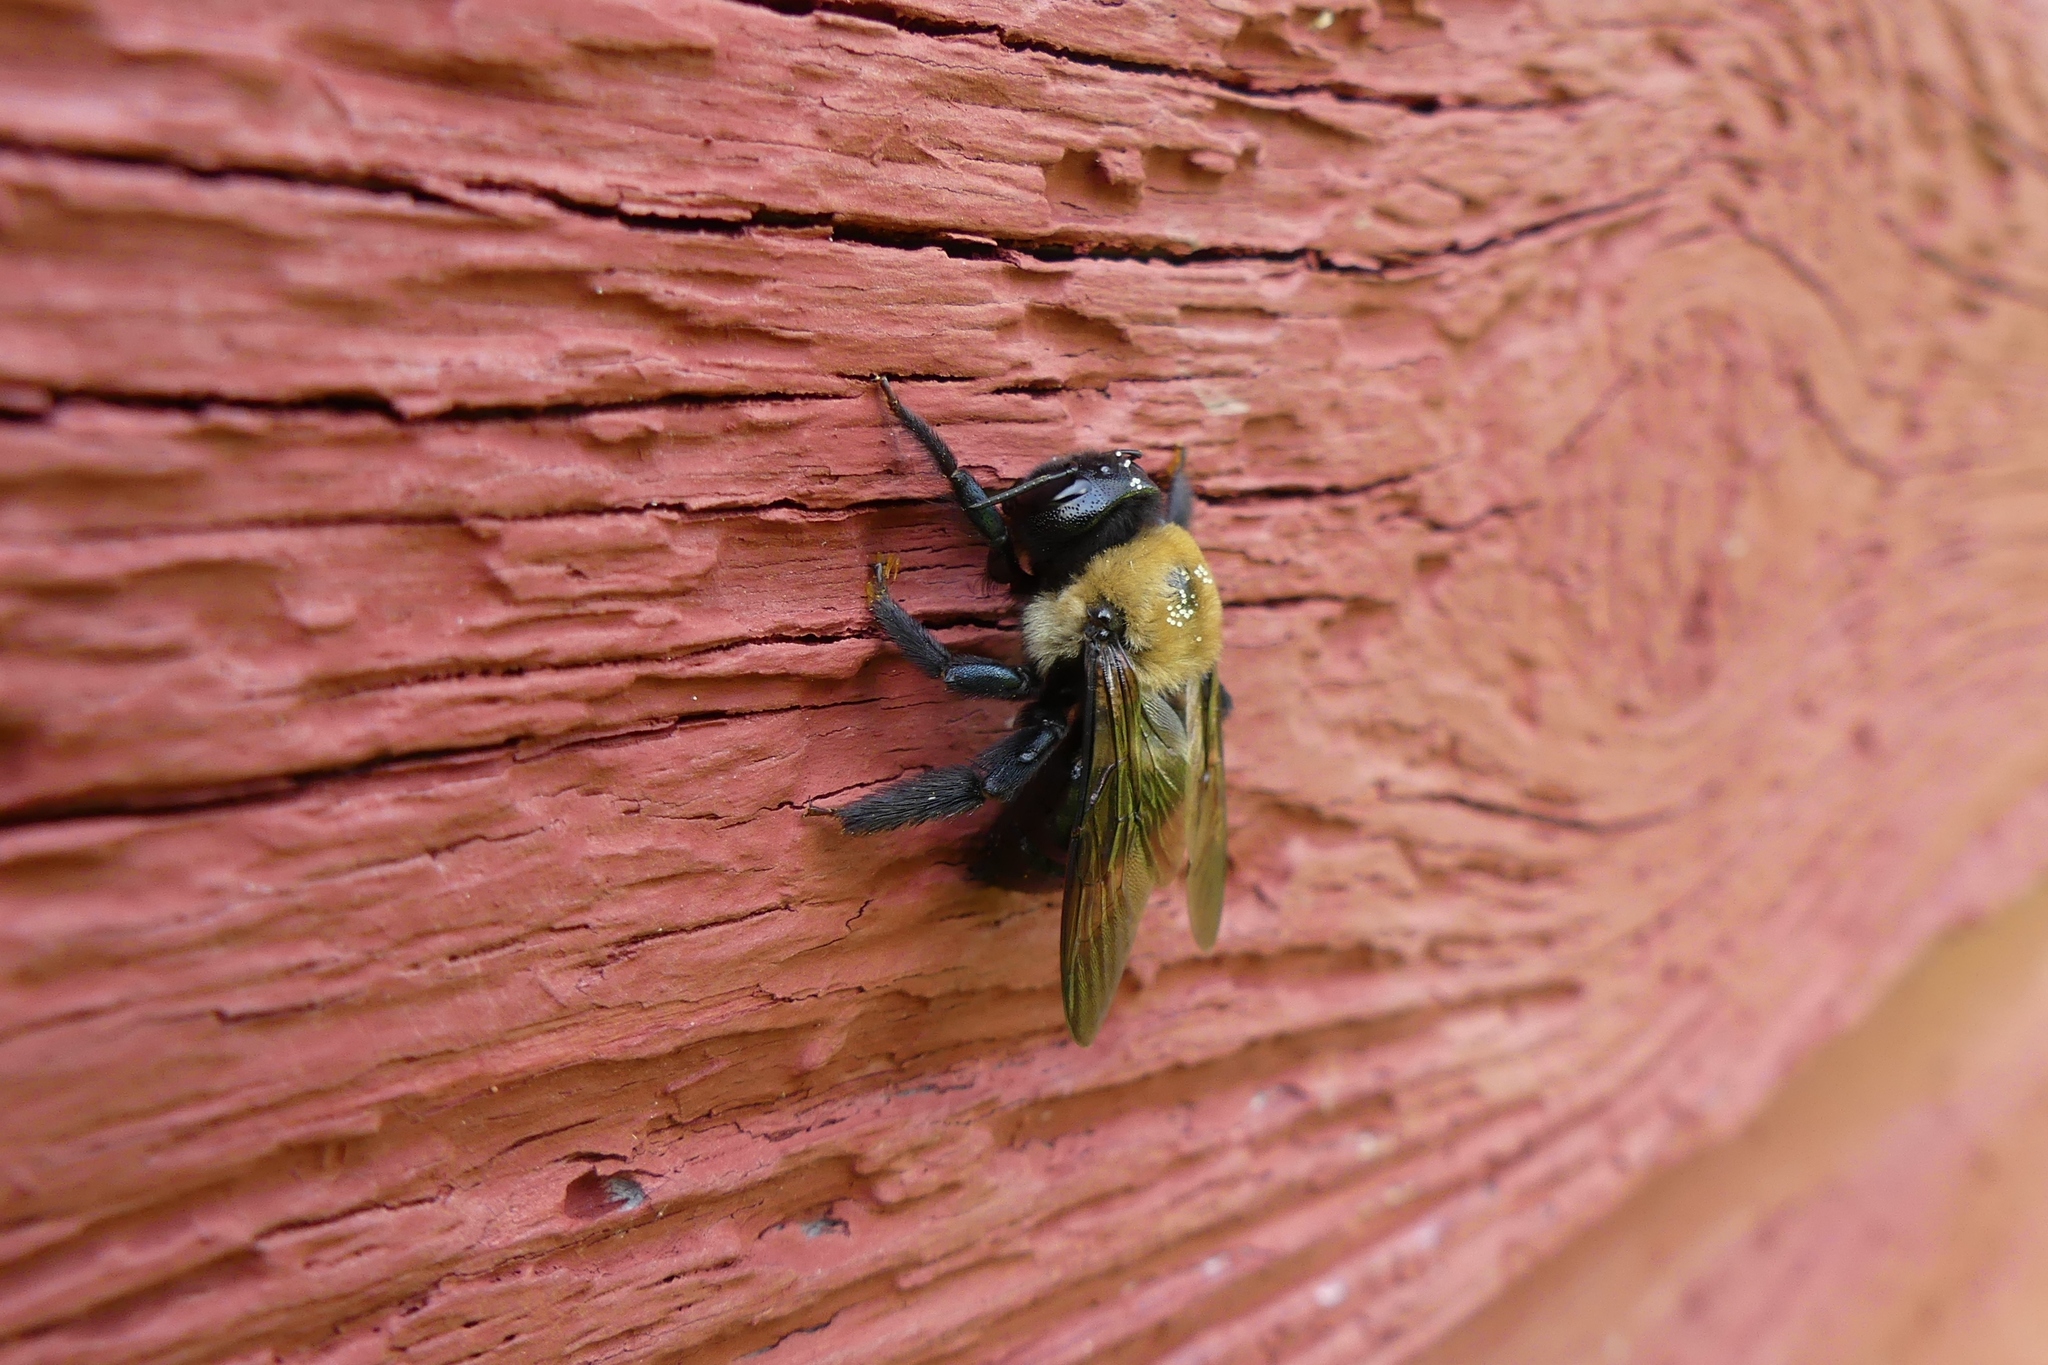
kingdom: Animalia
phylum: Arthropoda
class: Insecta
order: Hymenoptera
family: Apidae
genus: Xylocopa
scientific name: Xylocopa virginica
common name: Carpenter bee
